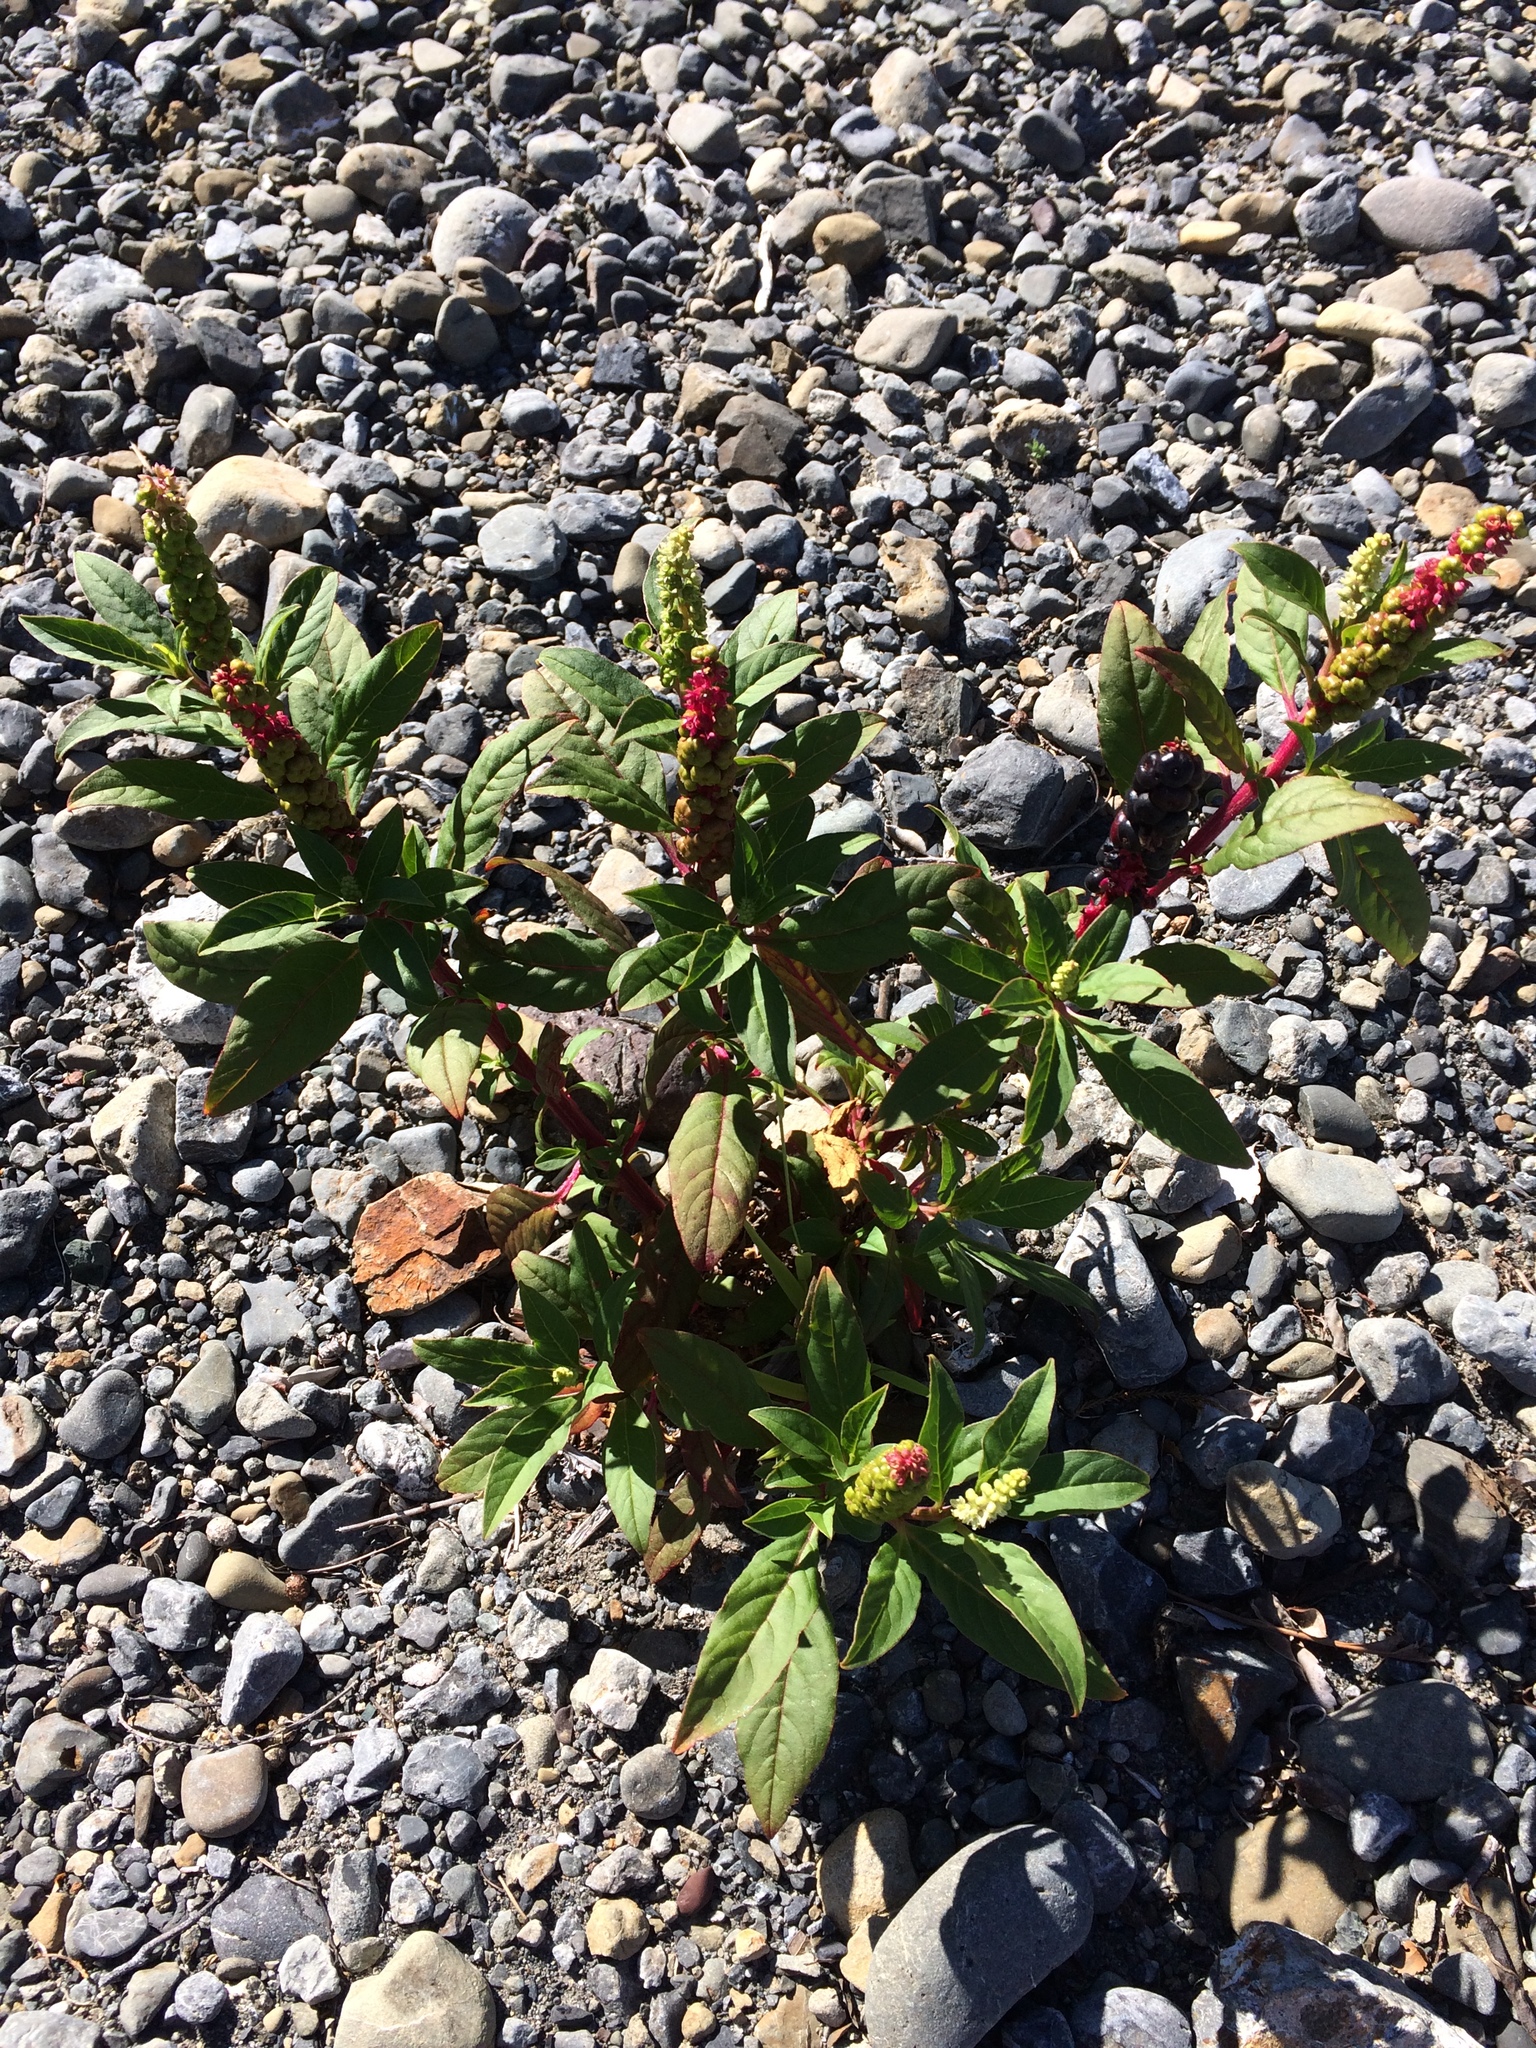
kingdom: Plantae
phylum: Tracheophyta
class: Magnoliopsida
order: Caryophyllales
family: Phytolaccaceae
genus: Phytolacca
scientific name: Phytolacca icosandra
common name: Button pokeweed
